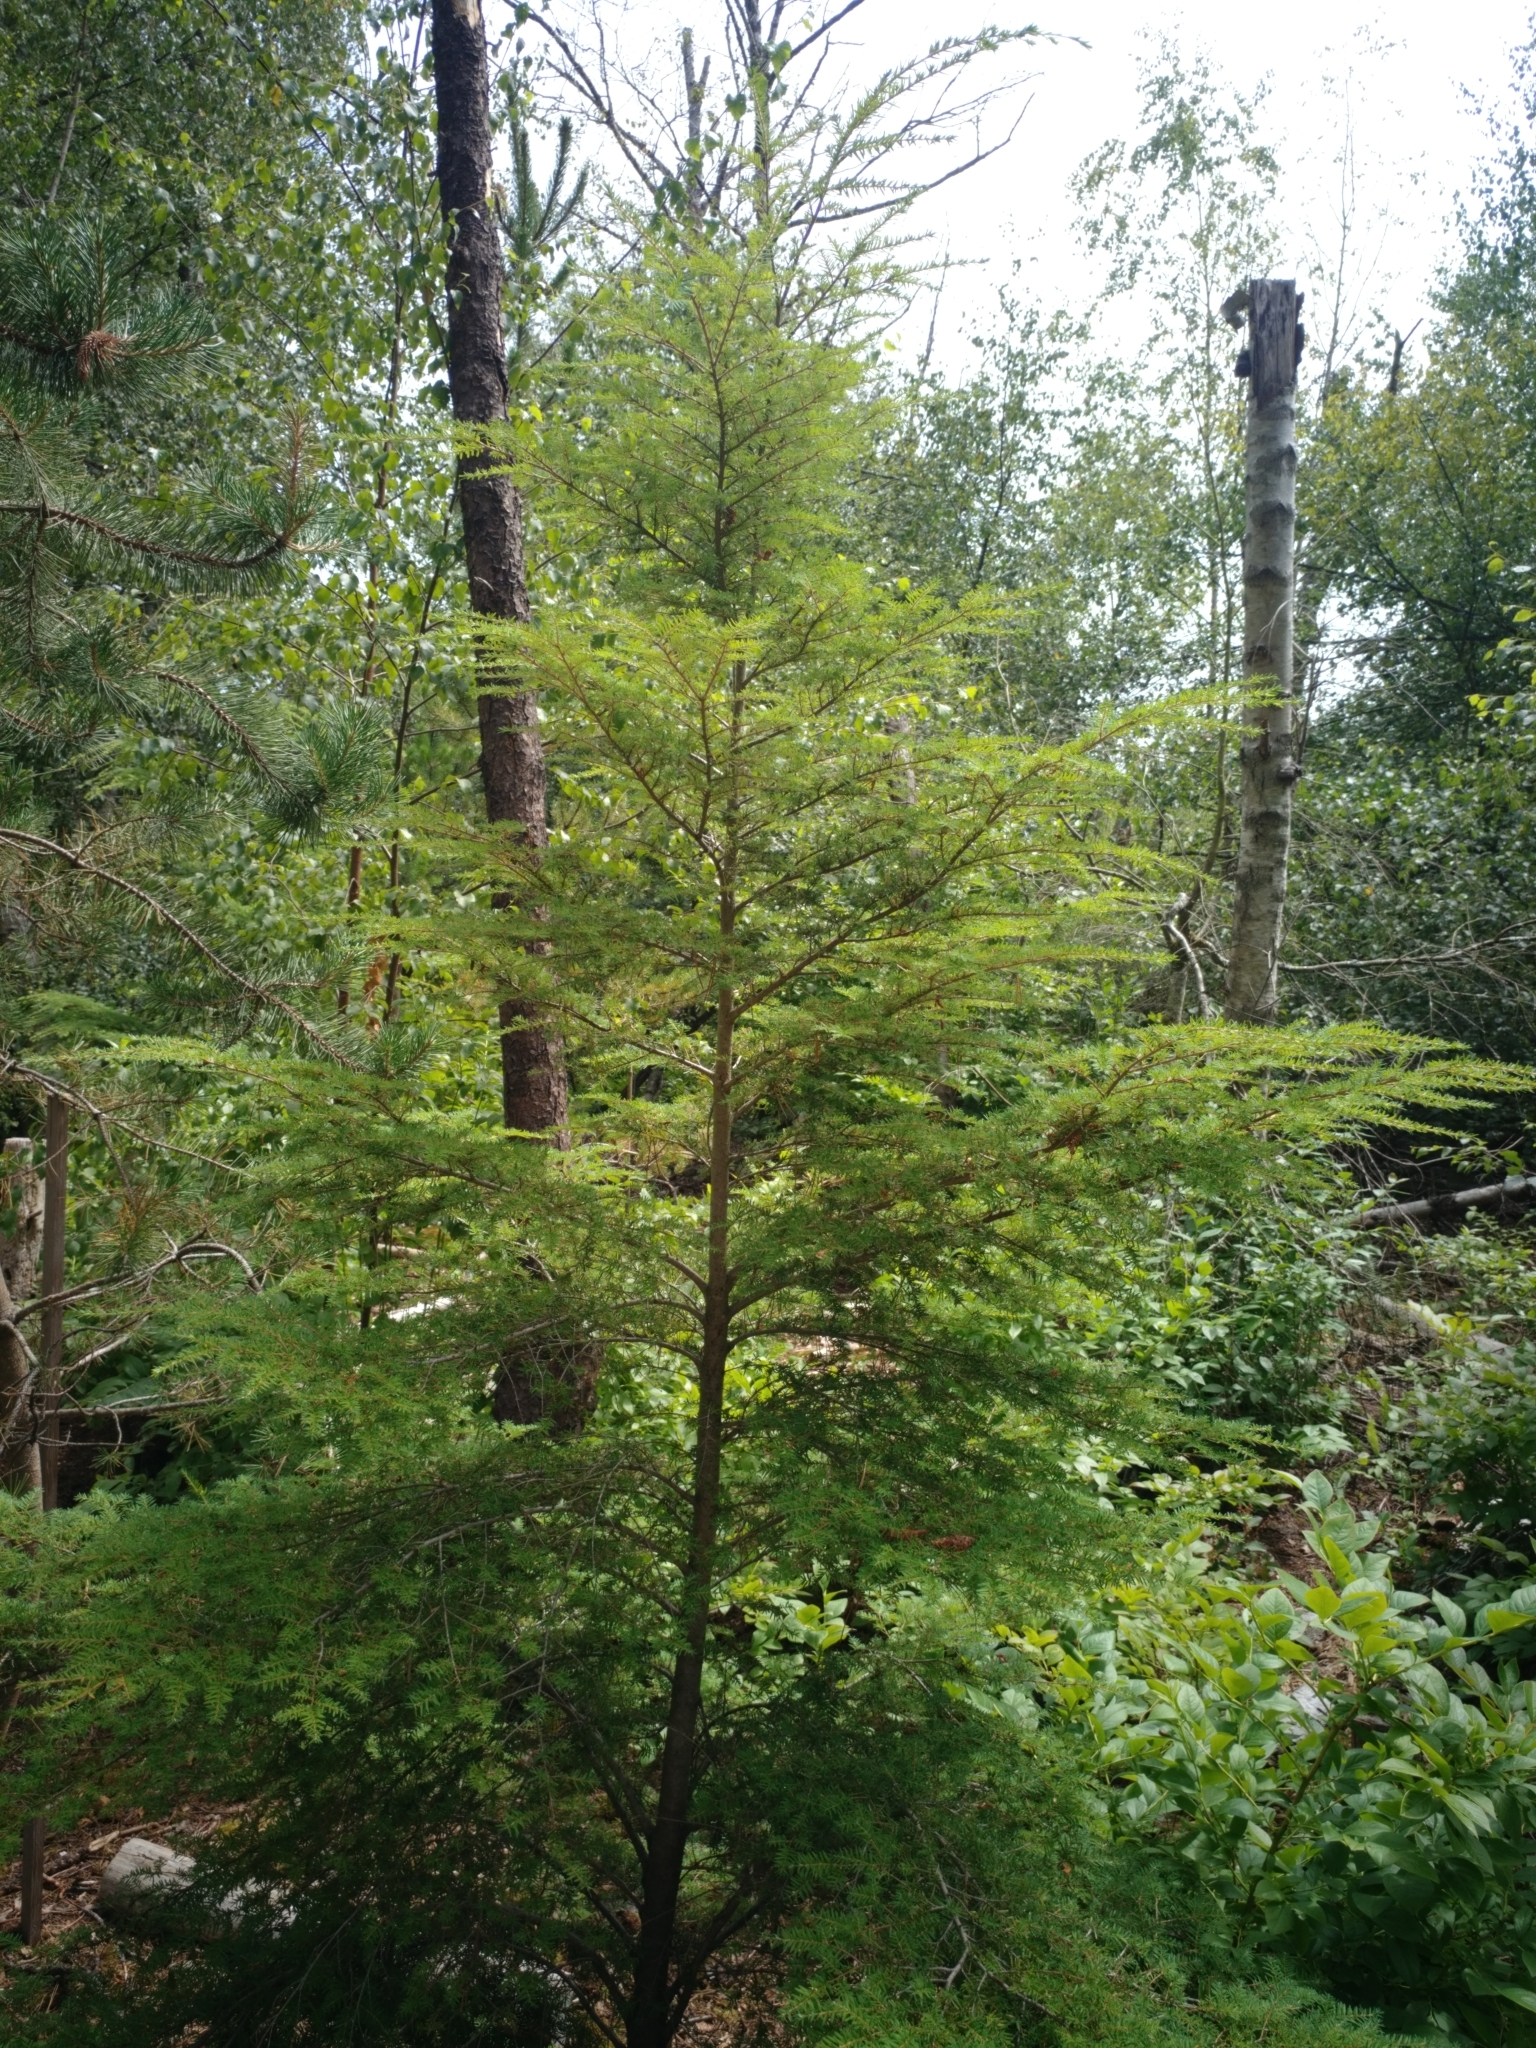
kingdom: Plantae
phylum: Tracheophyta
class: Pinopsida
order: Pinales
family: Pinaceae
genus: Tsuga
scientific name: Tsuga heterophylla
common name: Western hemlock
